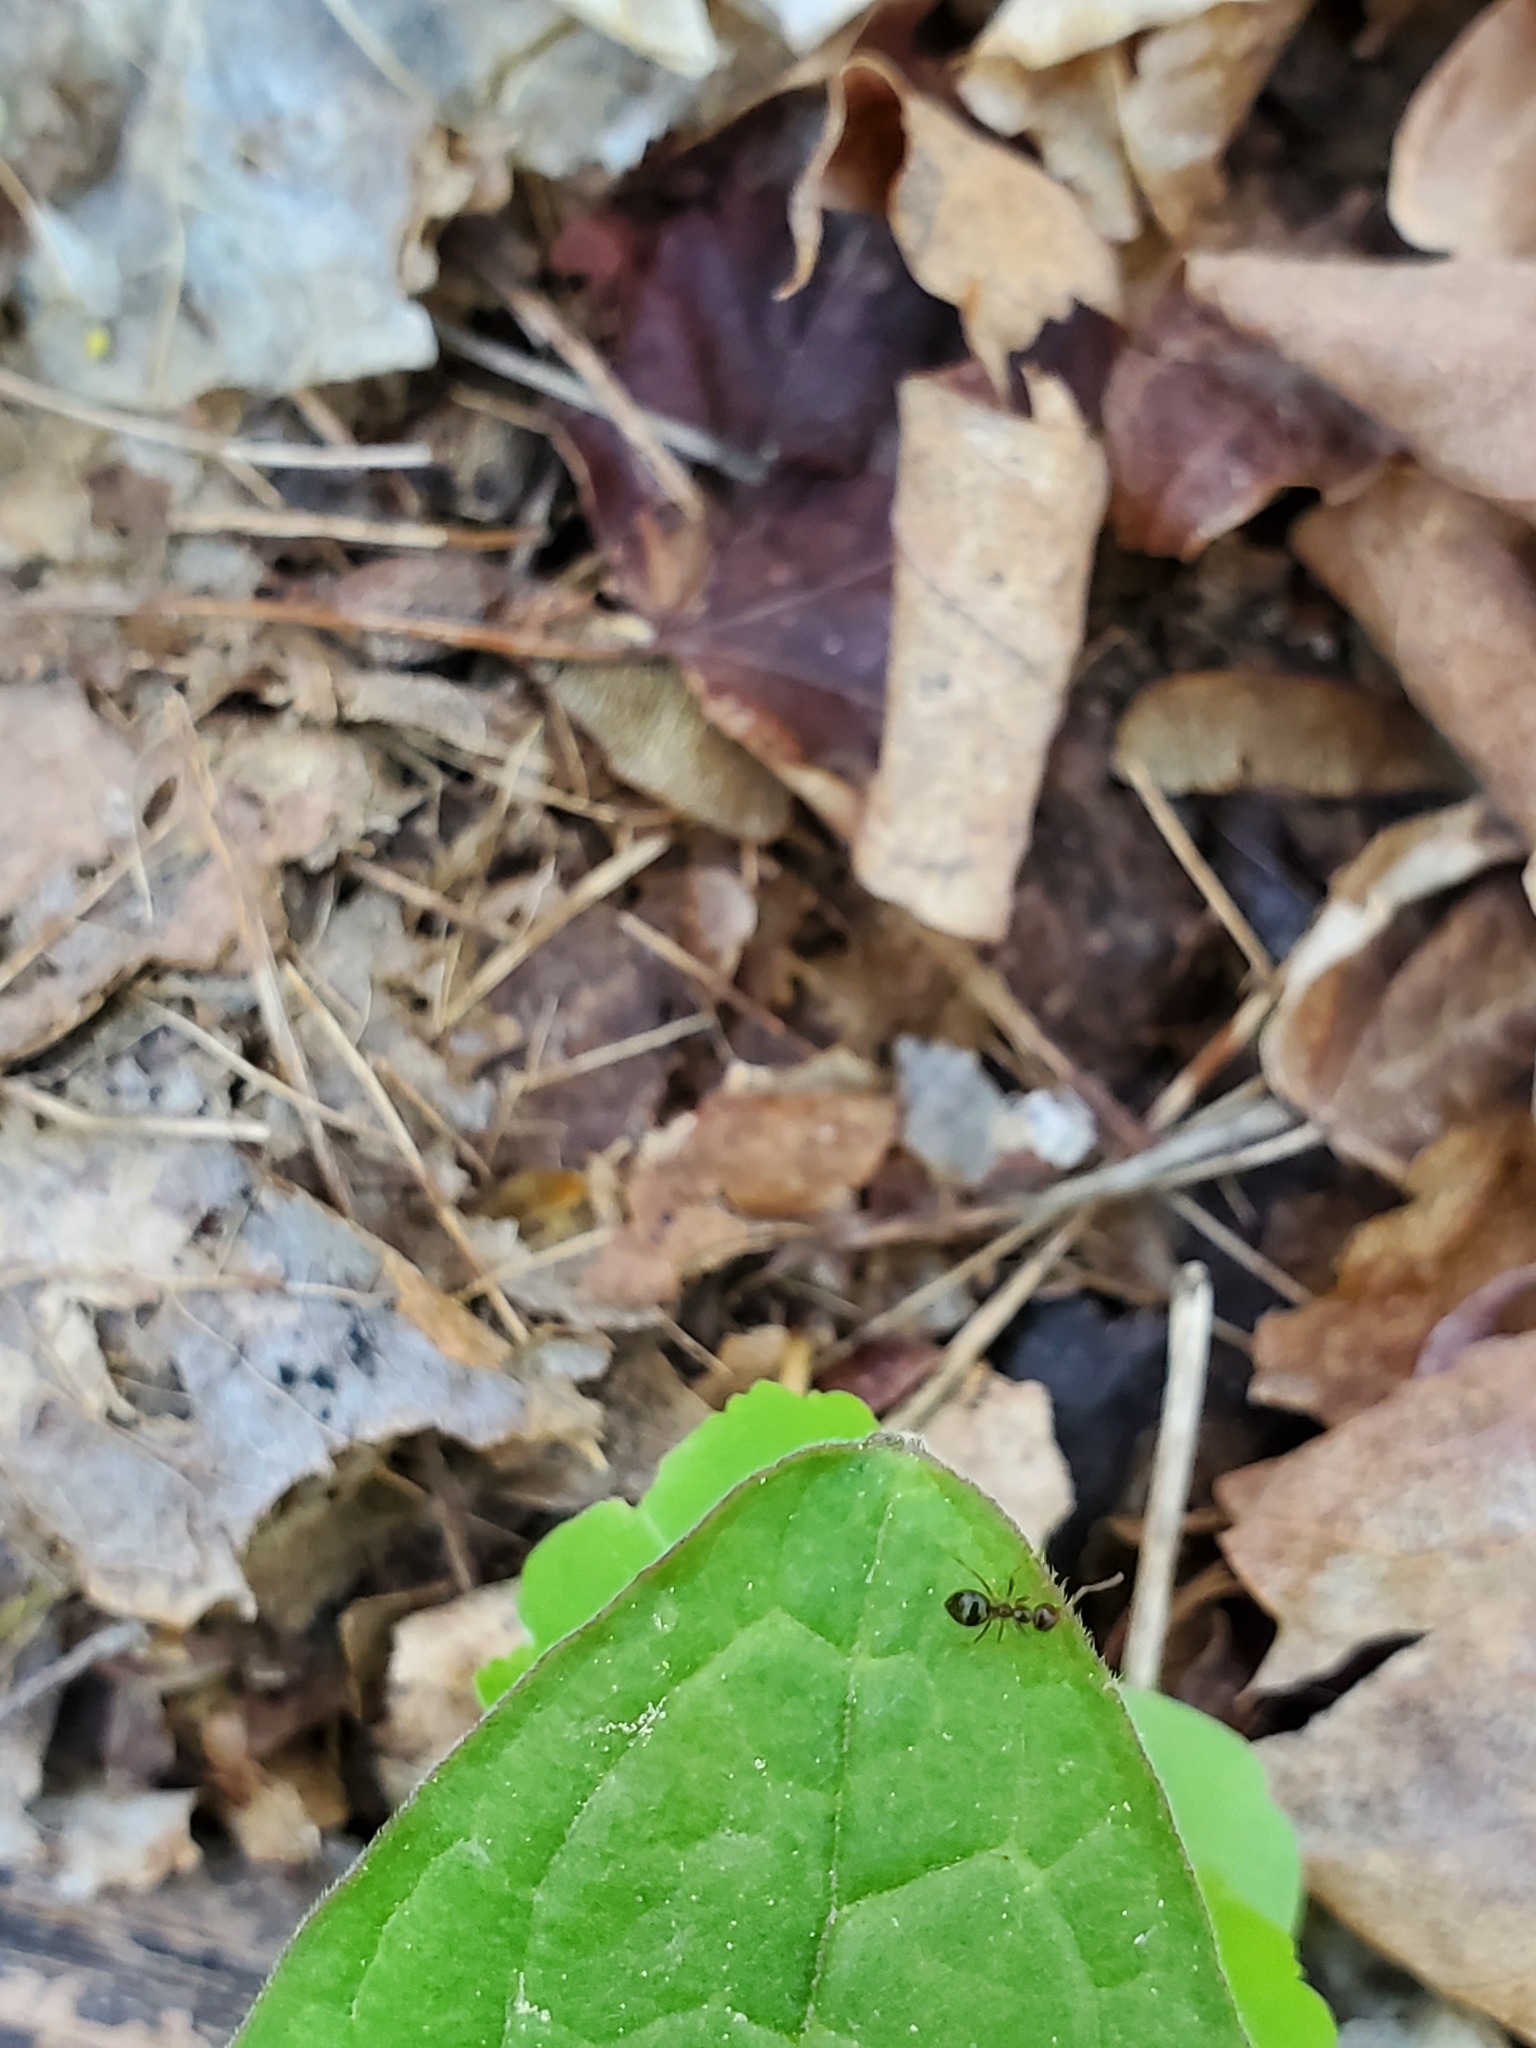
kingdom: Animalia
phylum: Arthropoda
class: Insecta
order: Hymenoptera
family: Formicidae
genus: Prenolepis
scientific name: Prenolepis imparis
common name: Small honey ant
